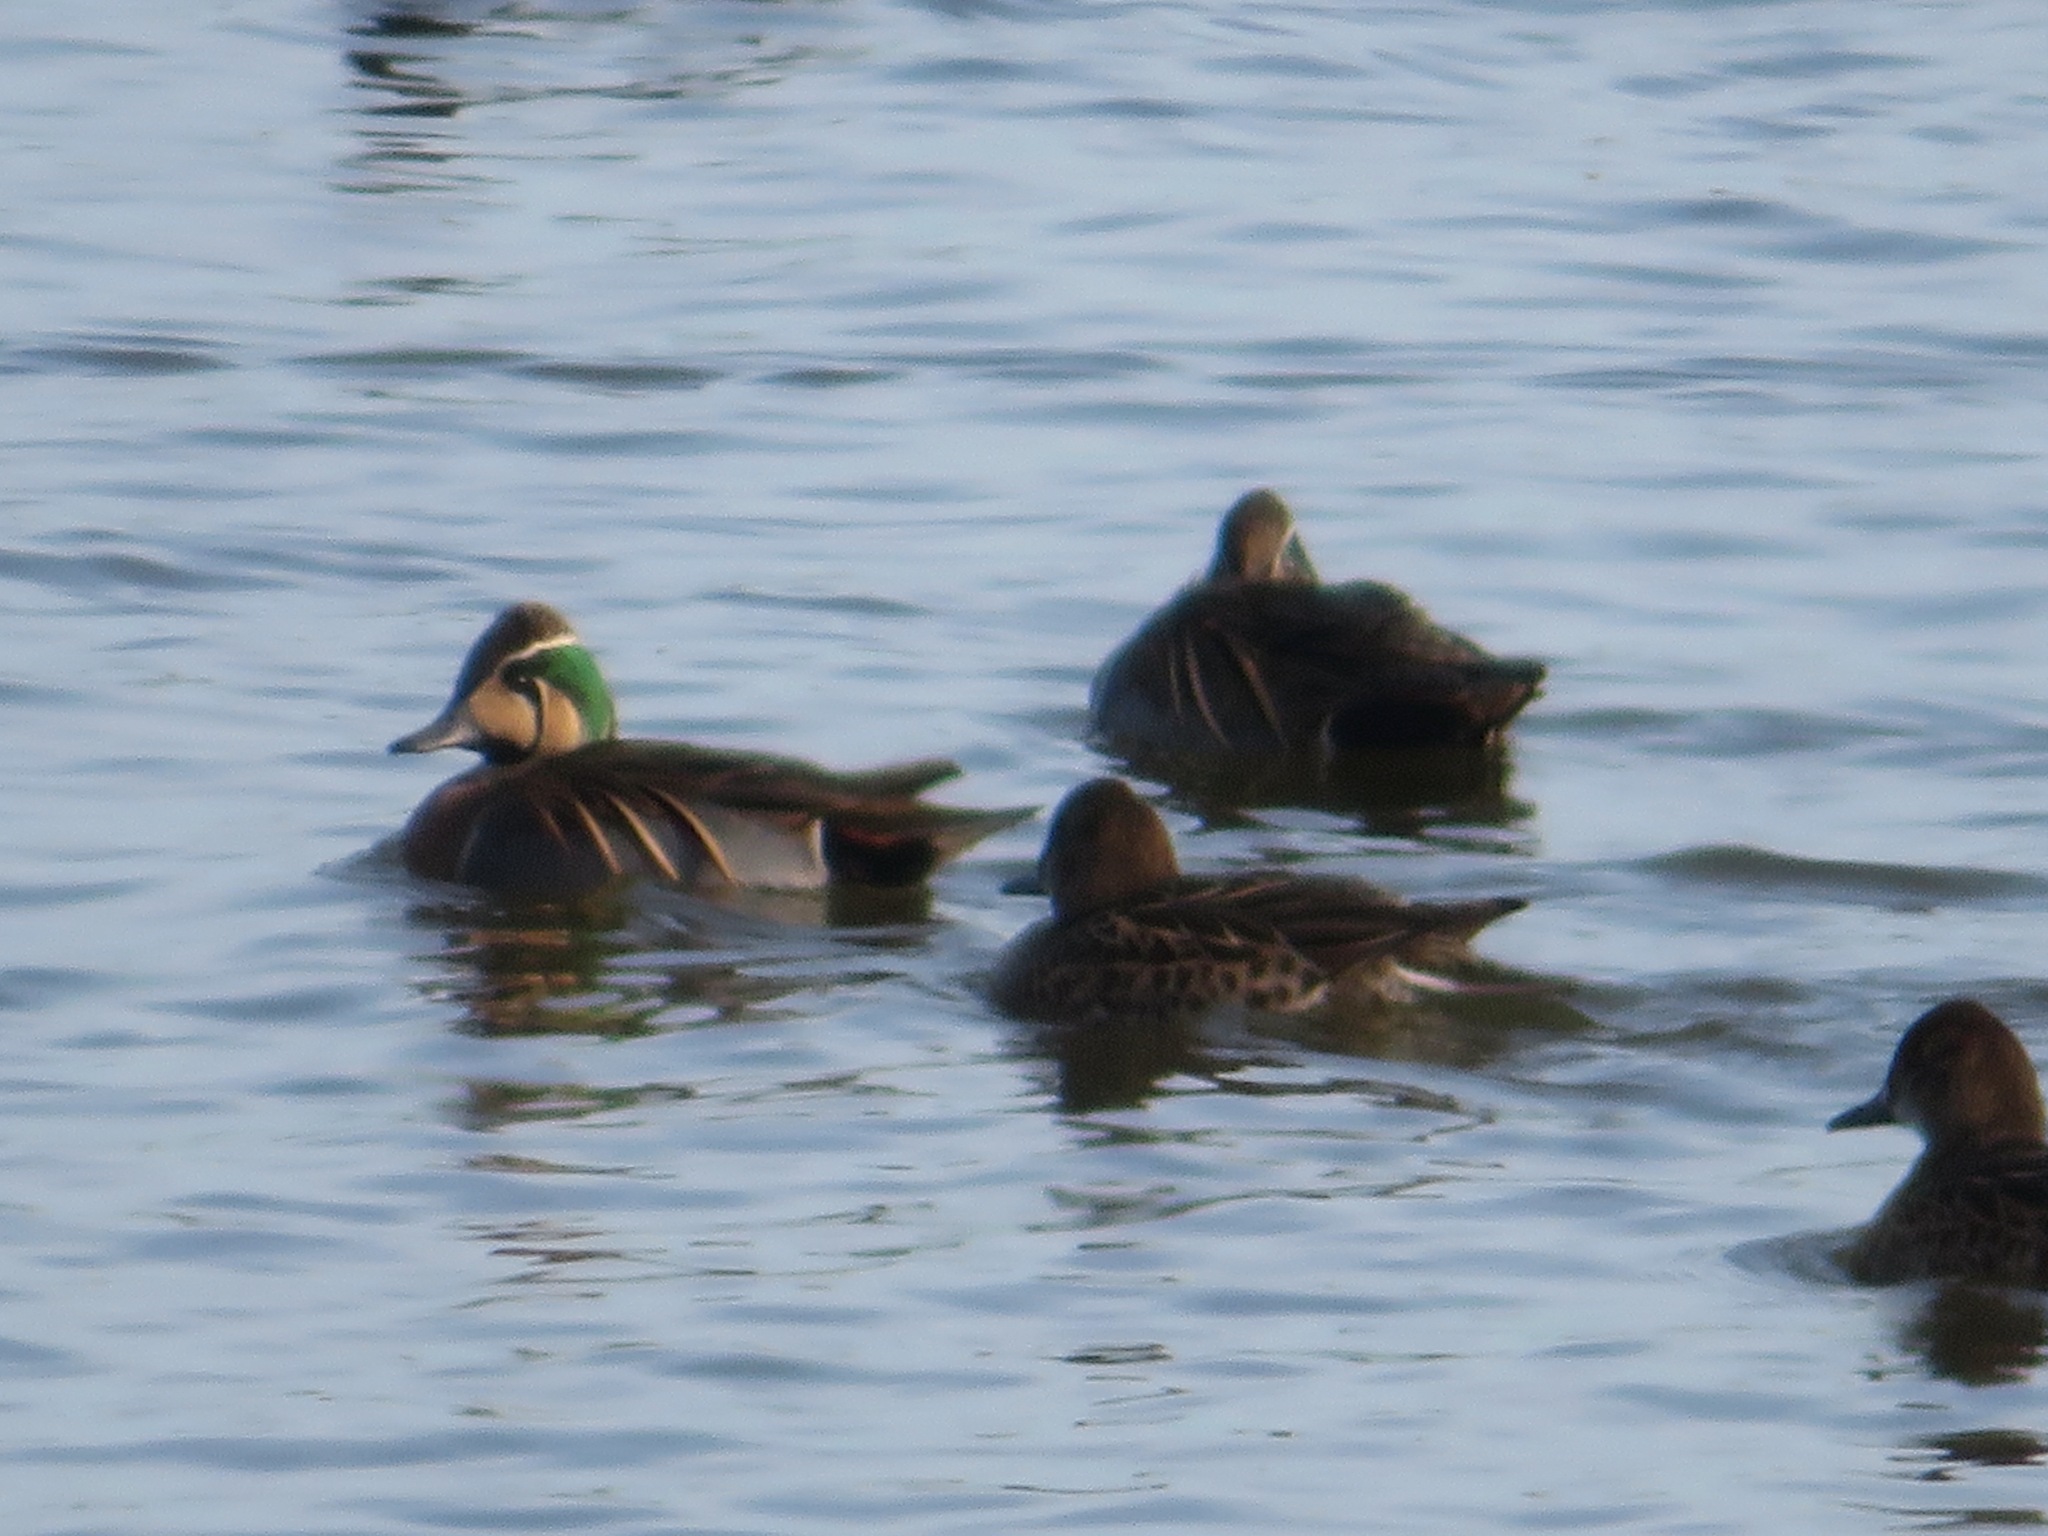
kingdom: Animalia
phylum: Chordata
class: Aves
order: Anseriformes
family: Anatidae
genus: Sibirionetta
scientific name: Sibirionetta formosa
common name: Baikal teal
